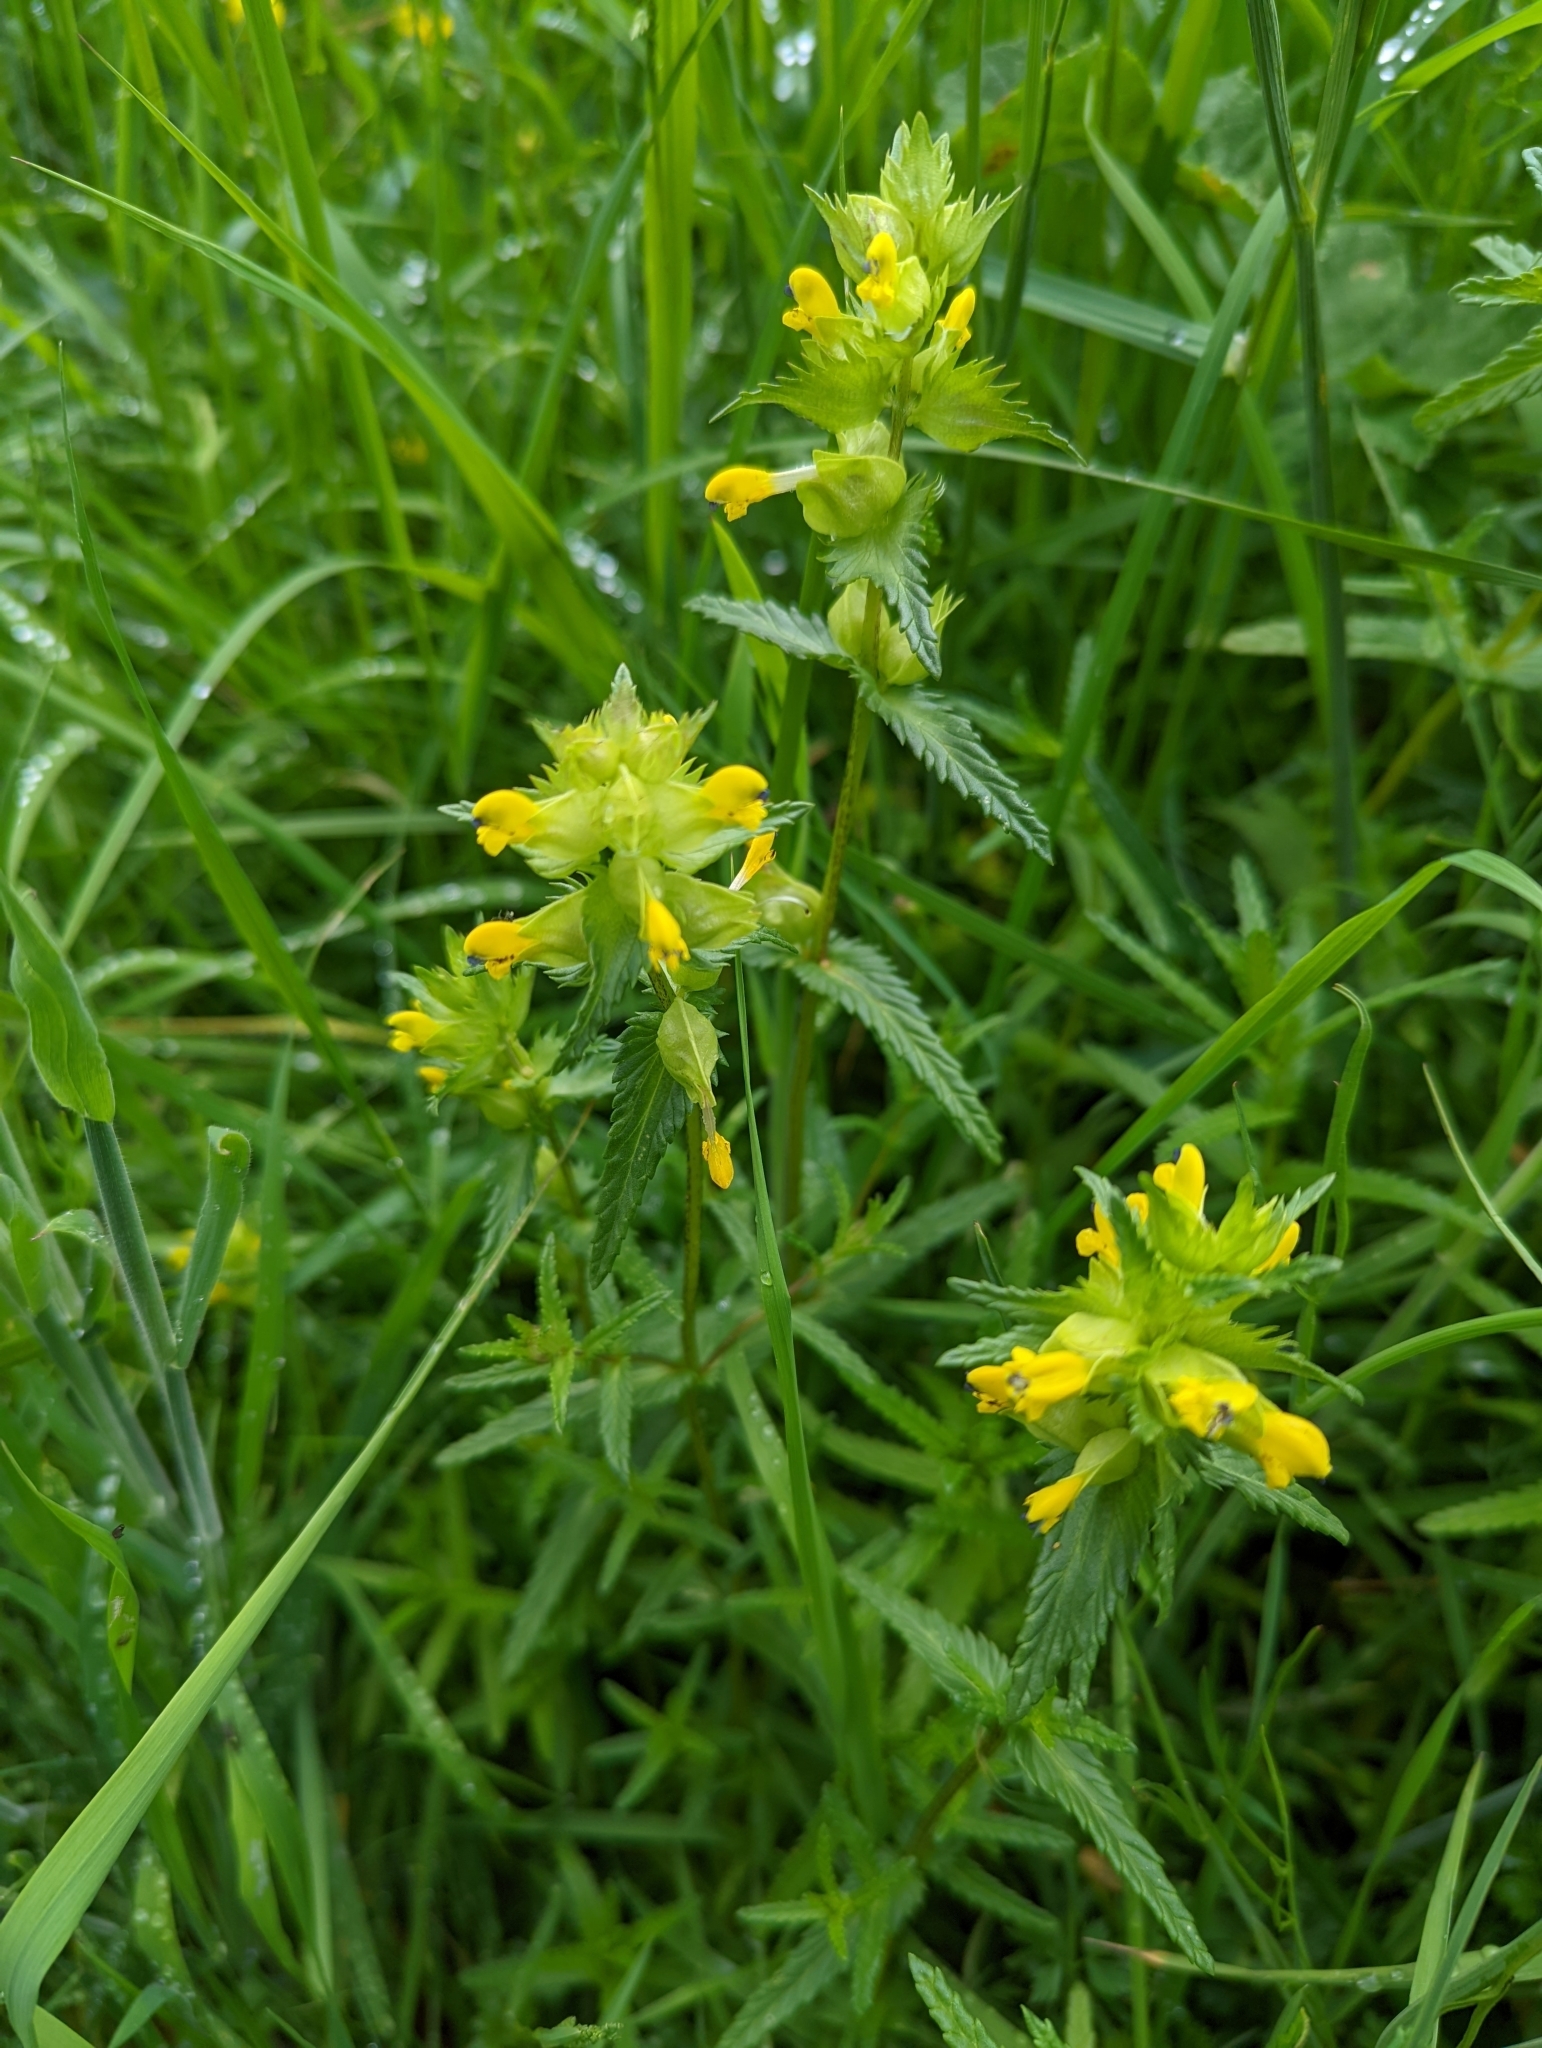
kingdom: Plantae
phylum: Tracheophyta
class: Magnoliopsida
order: Lamiales
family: Orobanchaceae
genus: Rhinanthus
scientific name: Rhinanthus minor
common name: Yellow-rattle
